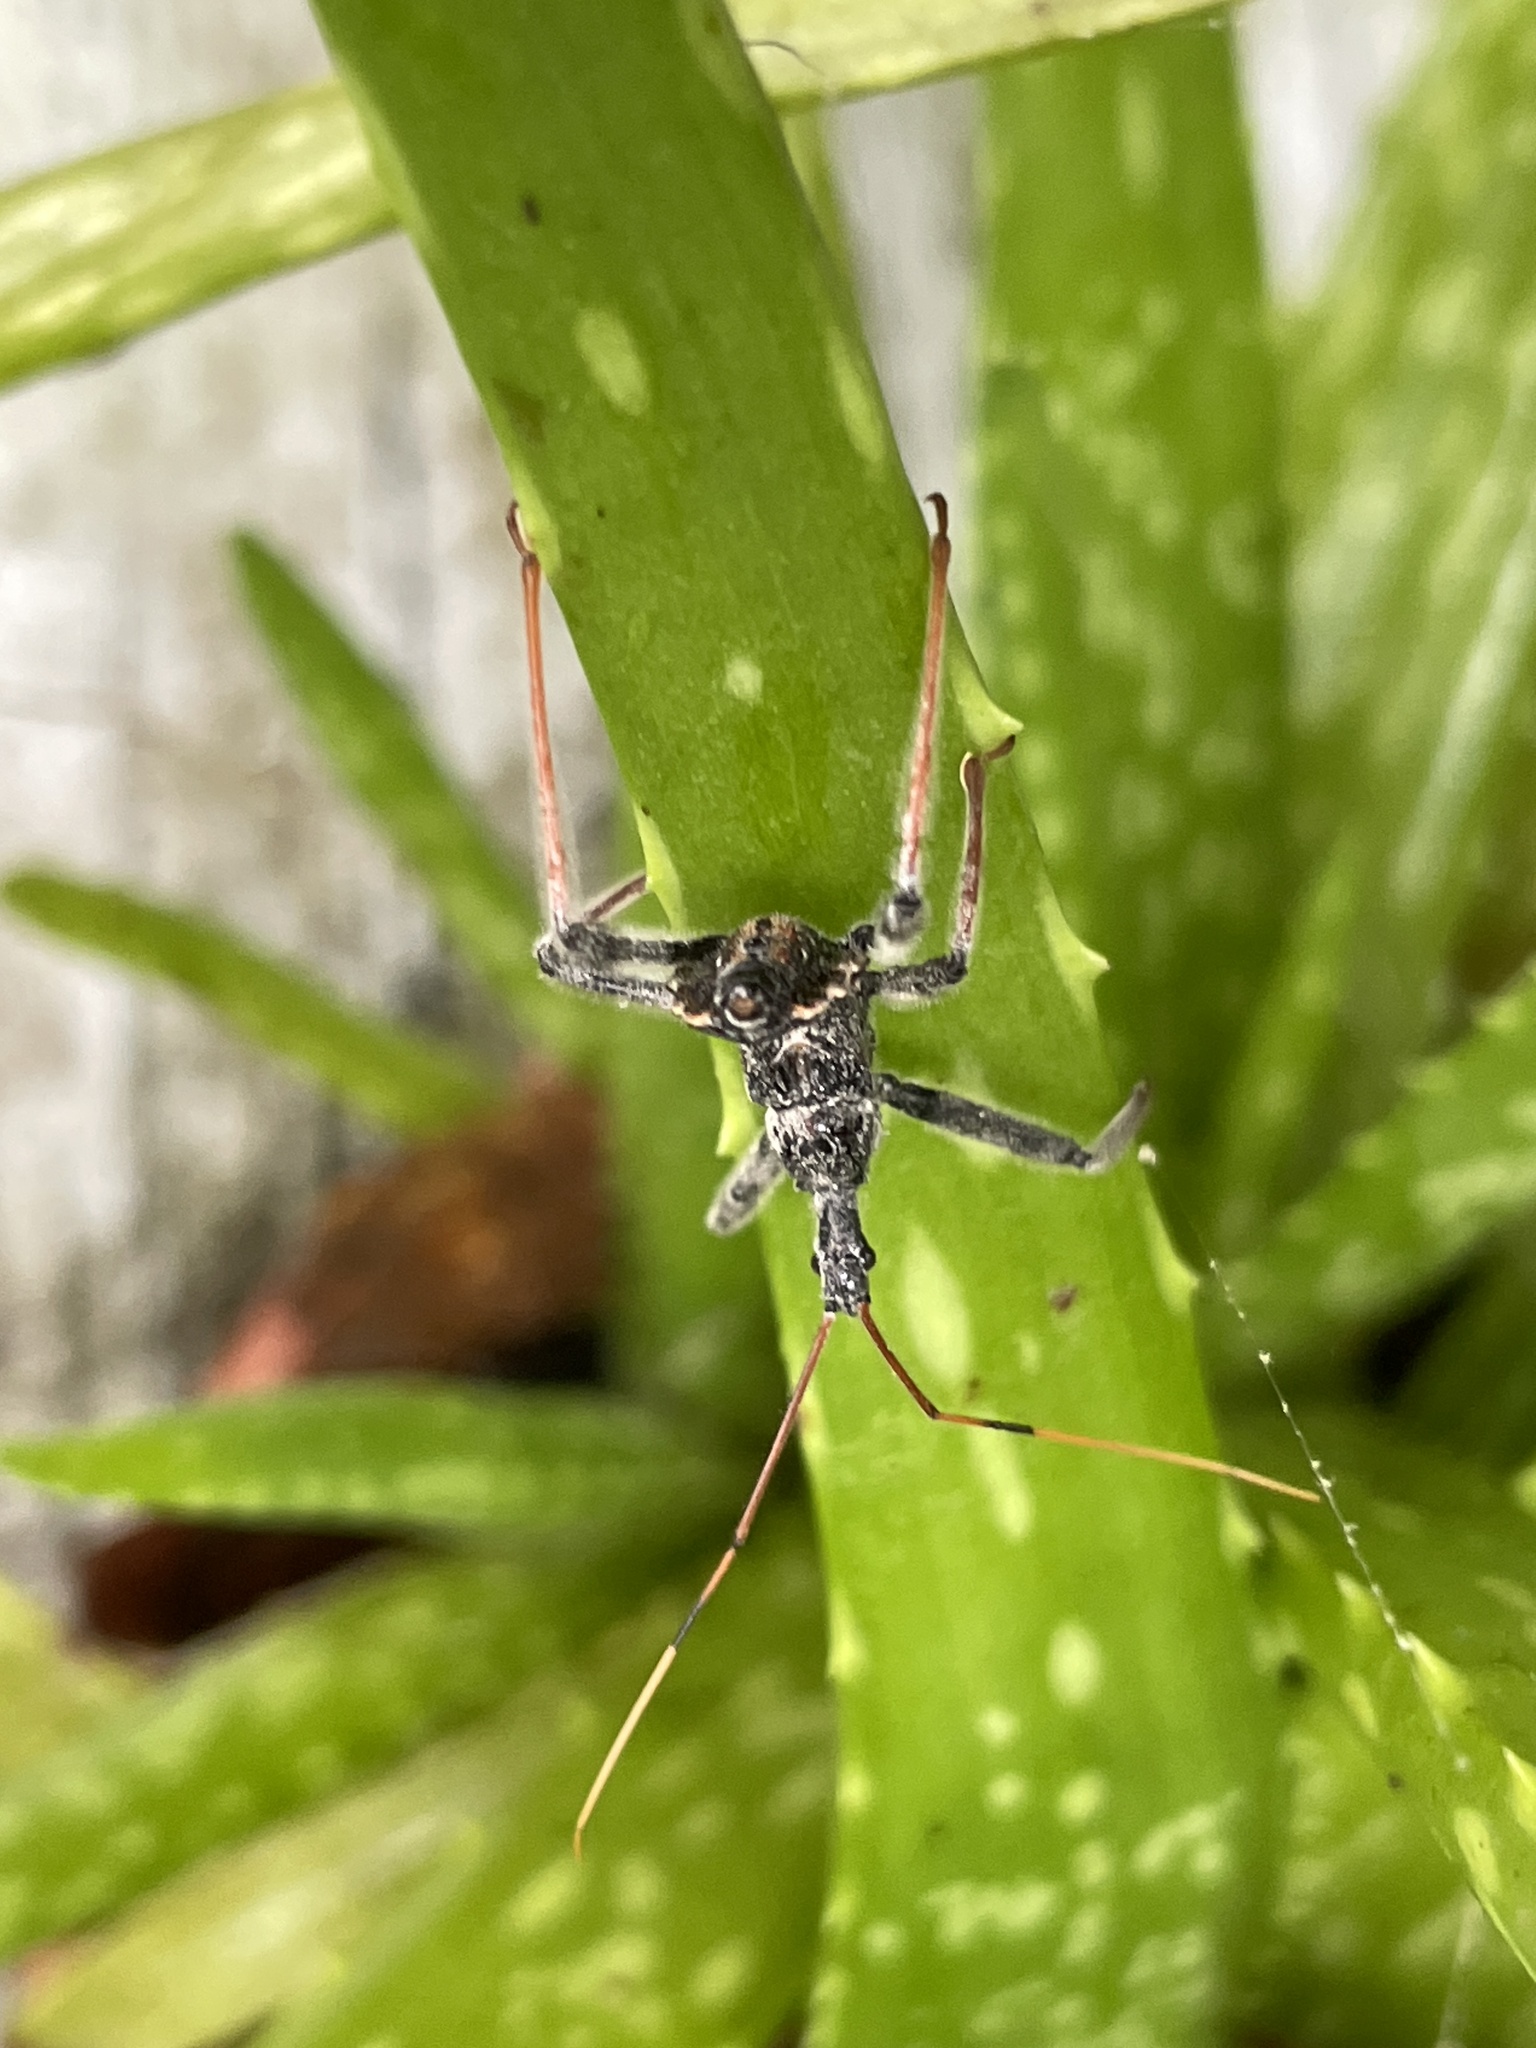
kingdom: Animalia
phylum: Arthropoda
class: Insecta
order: Hemiptera
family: Reduviidae
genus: Arilus
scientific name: Arilus cristatus
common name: North american wheel bug
